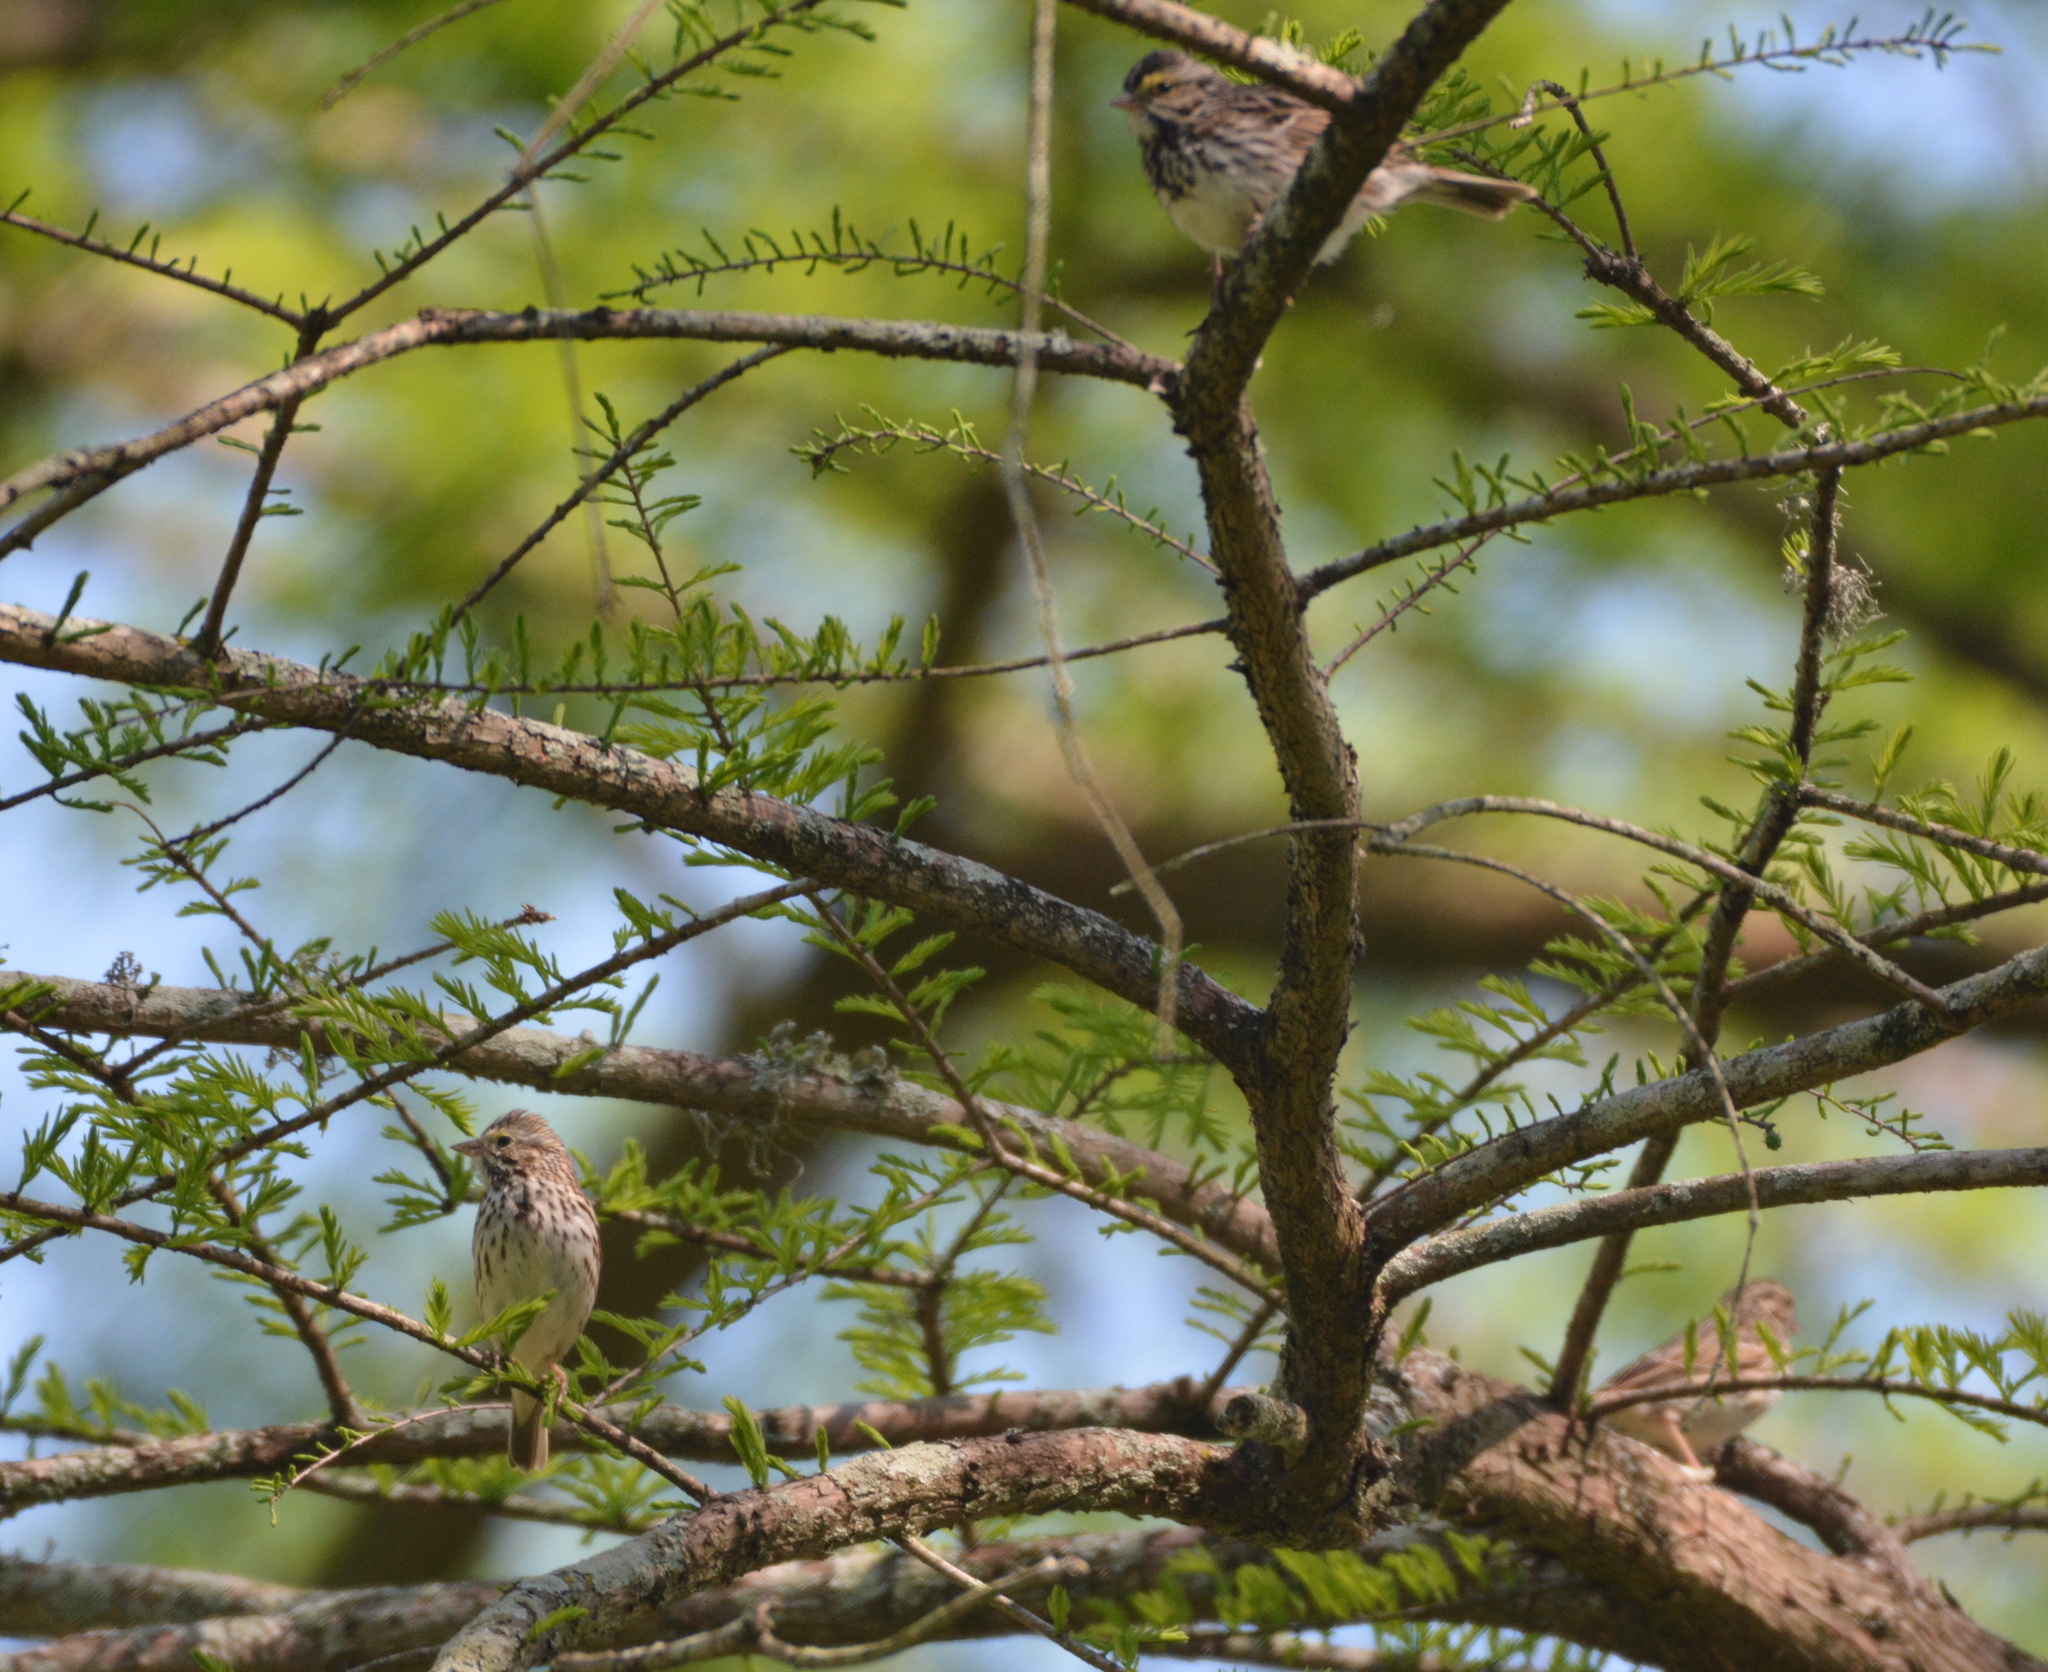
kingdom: Animalia
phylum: Chordata
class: Aves
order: Passeriformes
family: Passerellidae
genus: Passerculus
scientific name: Passerculus sandwichensis
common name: Savannah sparrow
